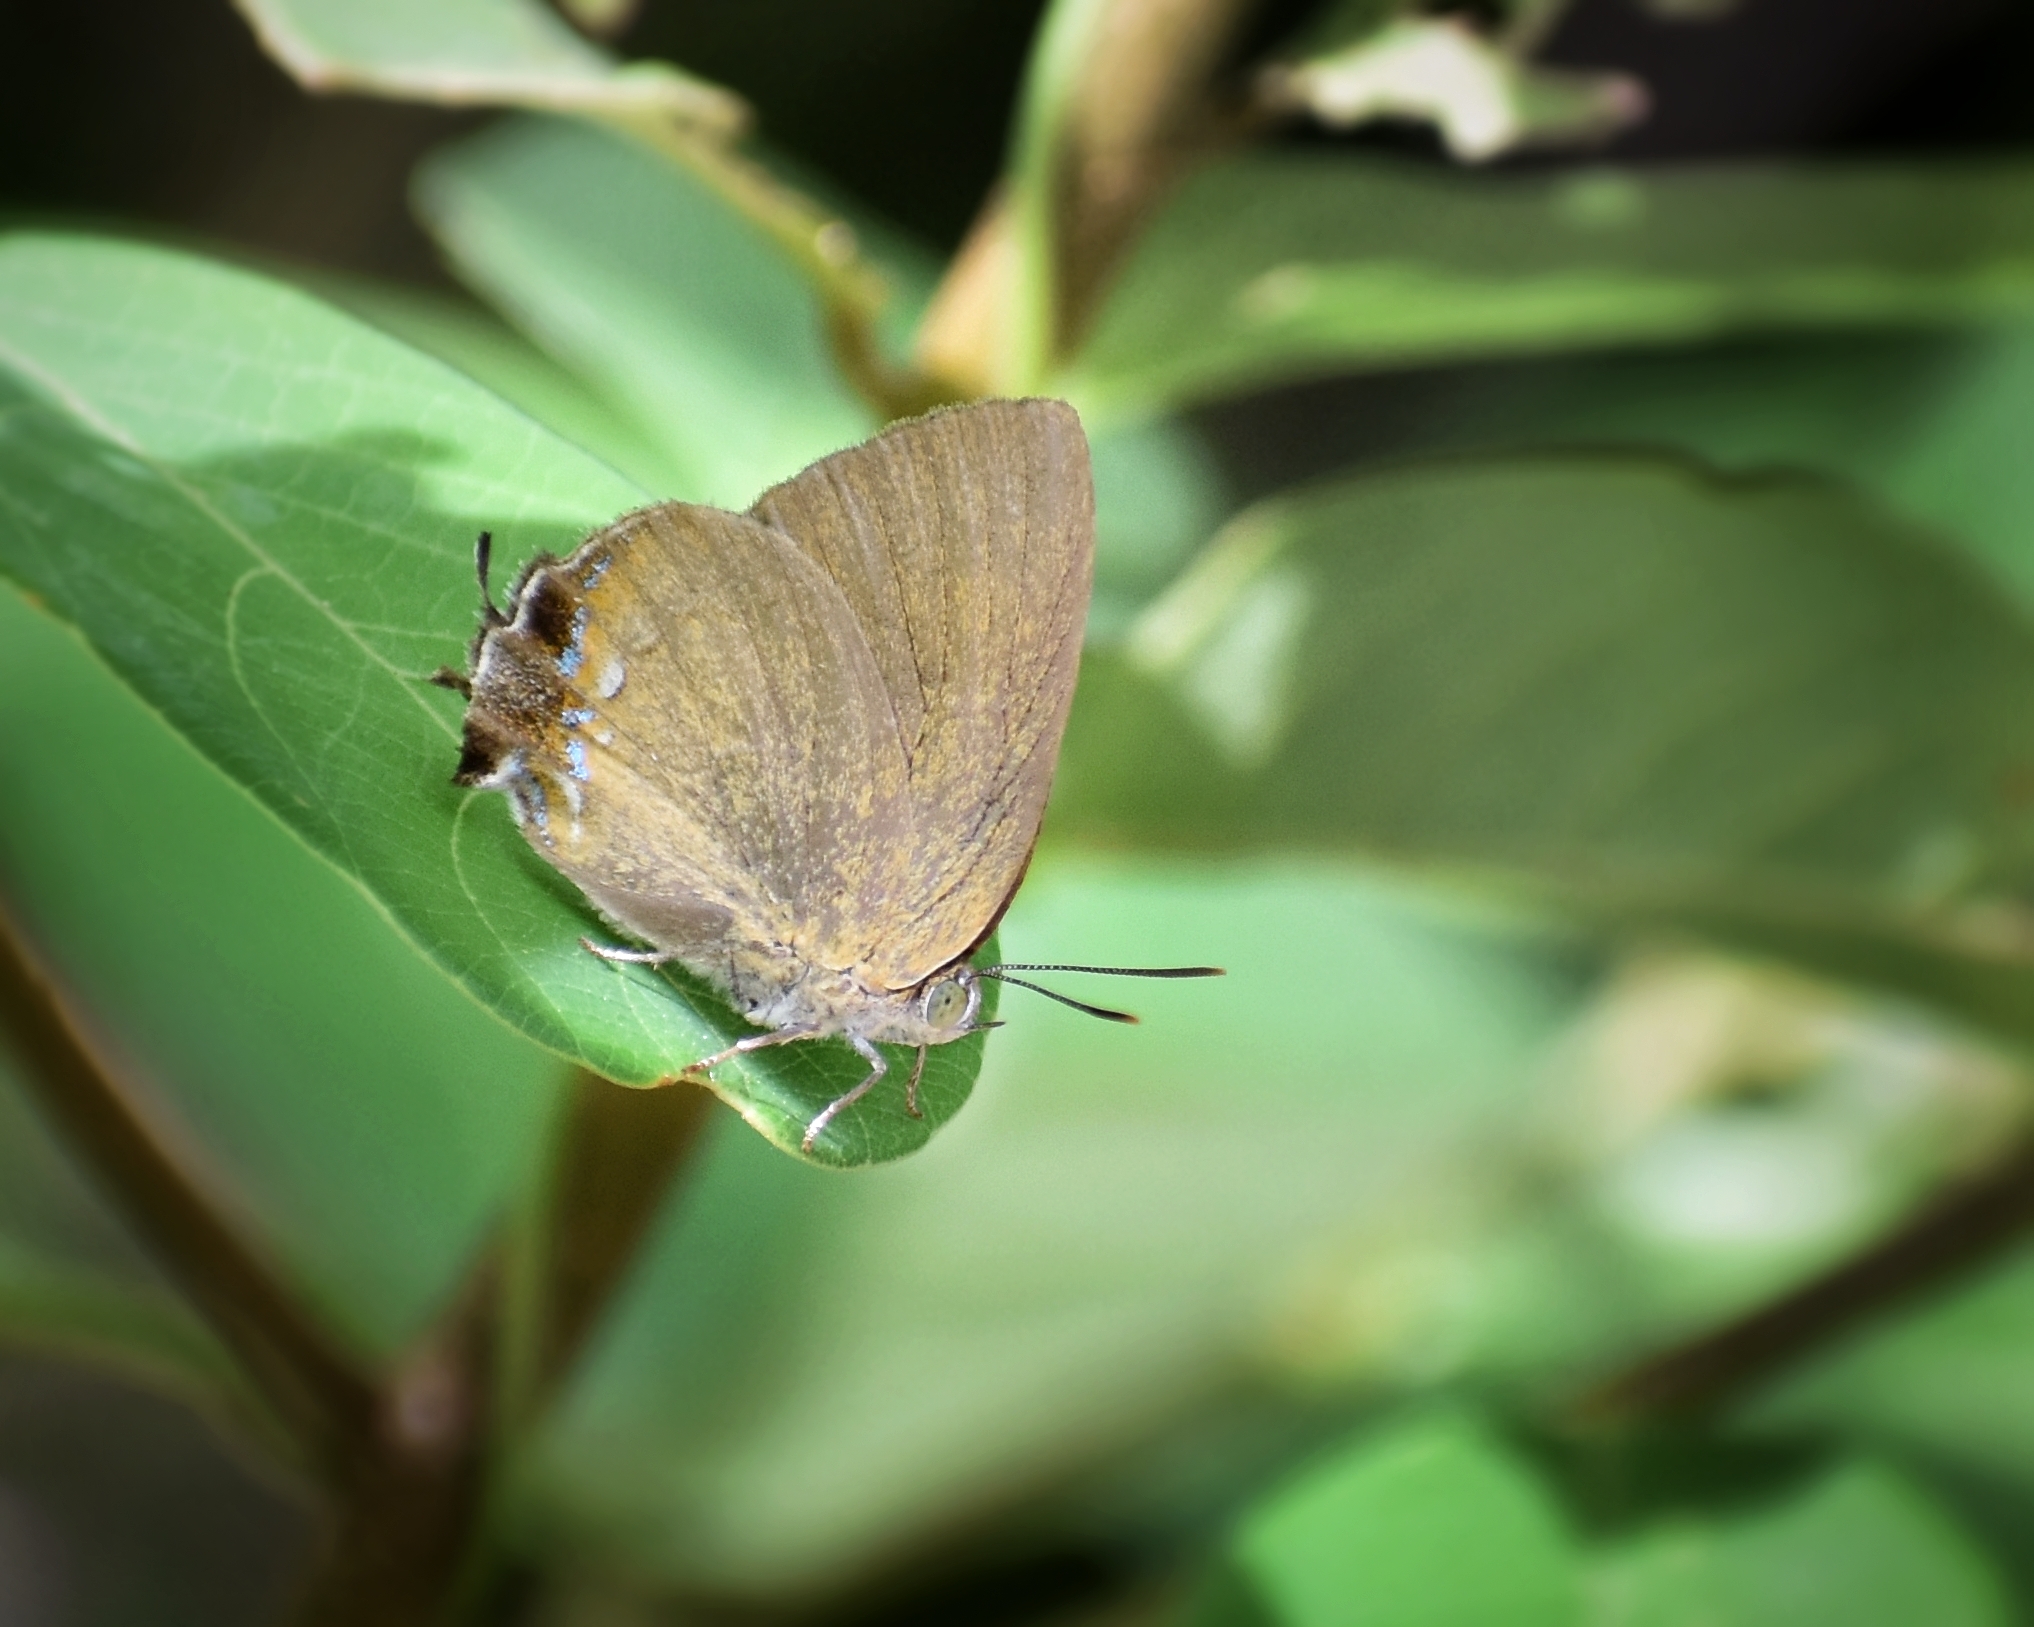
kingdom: Animalia
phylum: Arthropoda
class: Insecta
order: Lepidoptera
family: Lycaenidae
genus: Remelana
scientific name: Remelana jangala
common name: Chocolate royal
